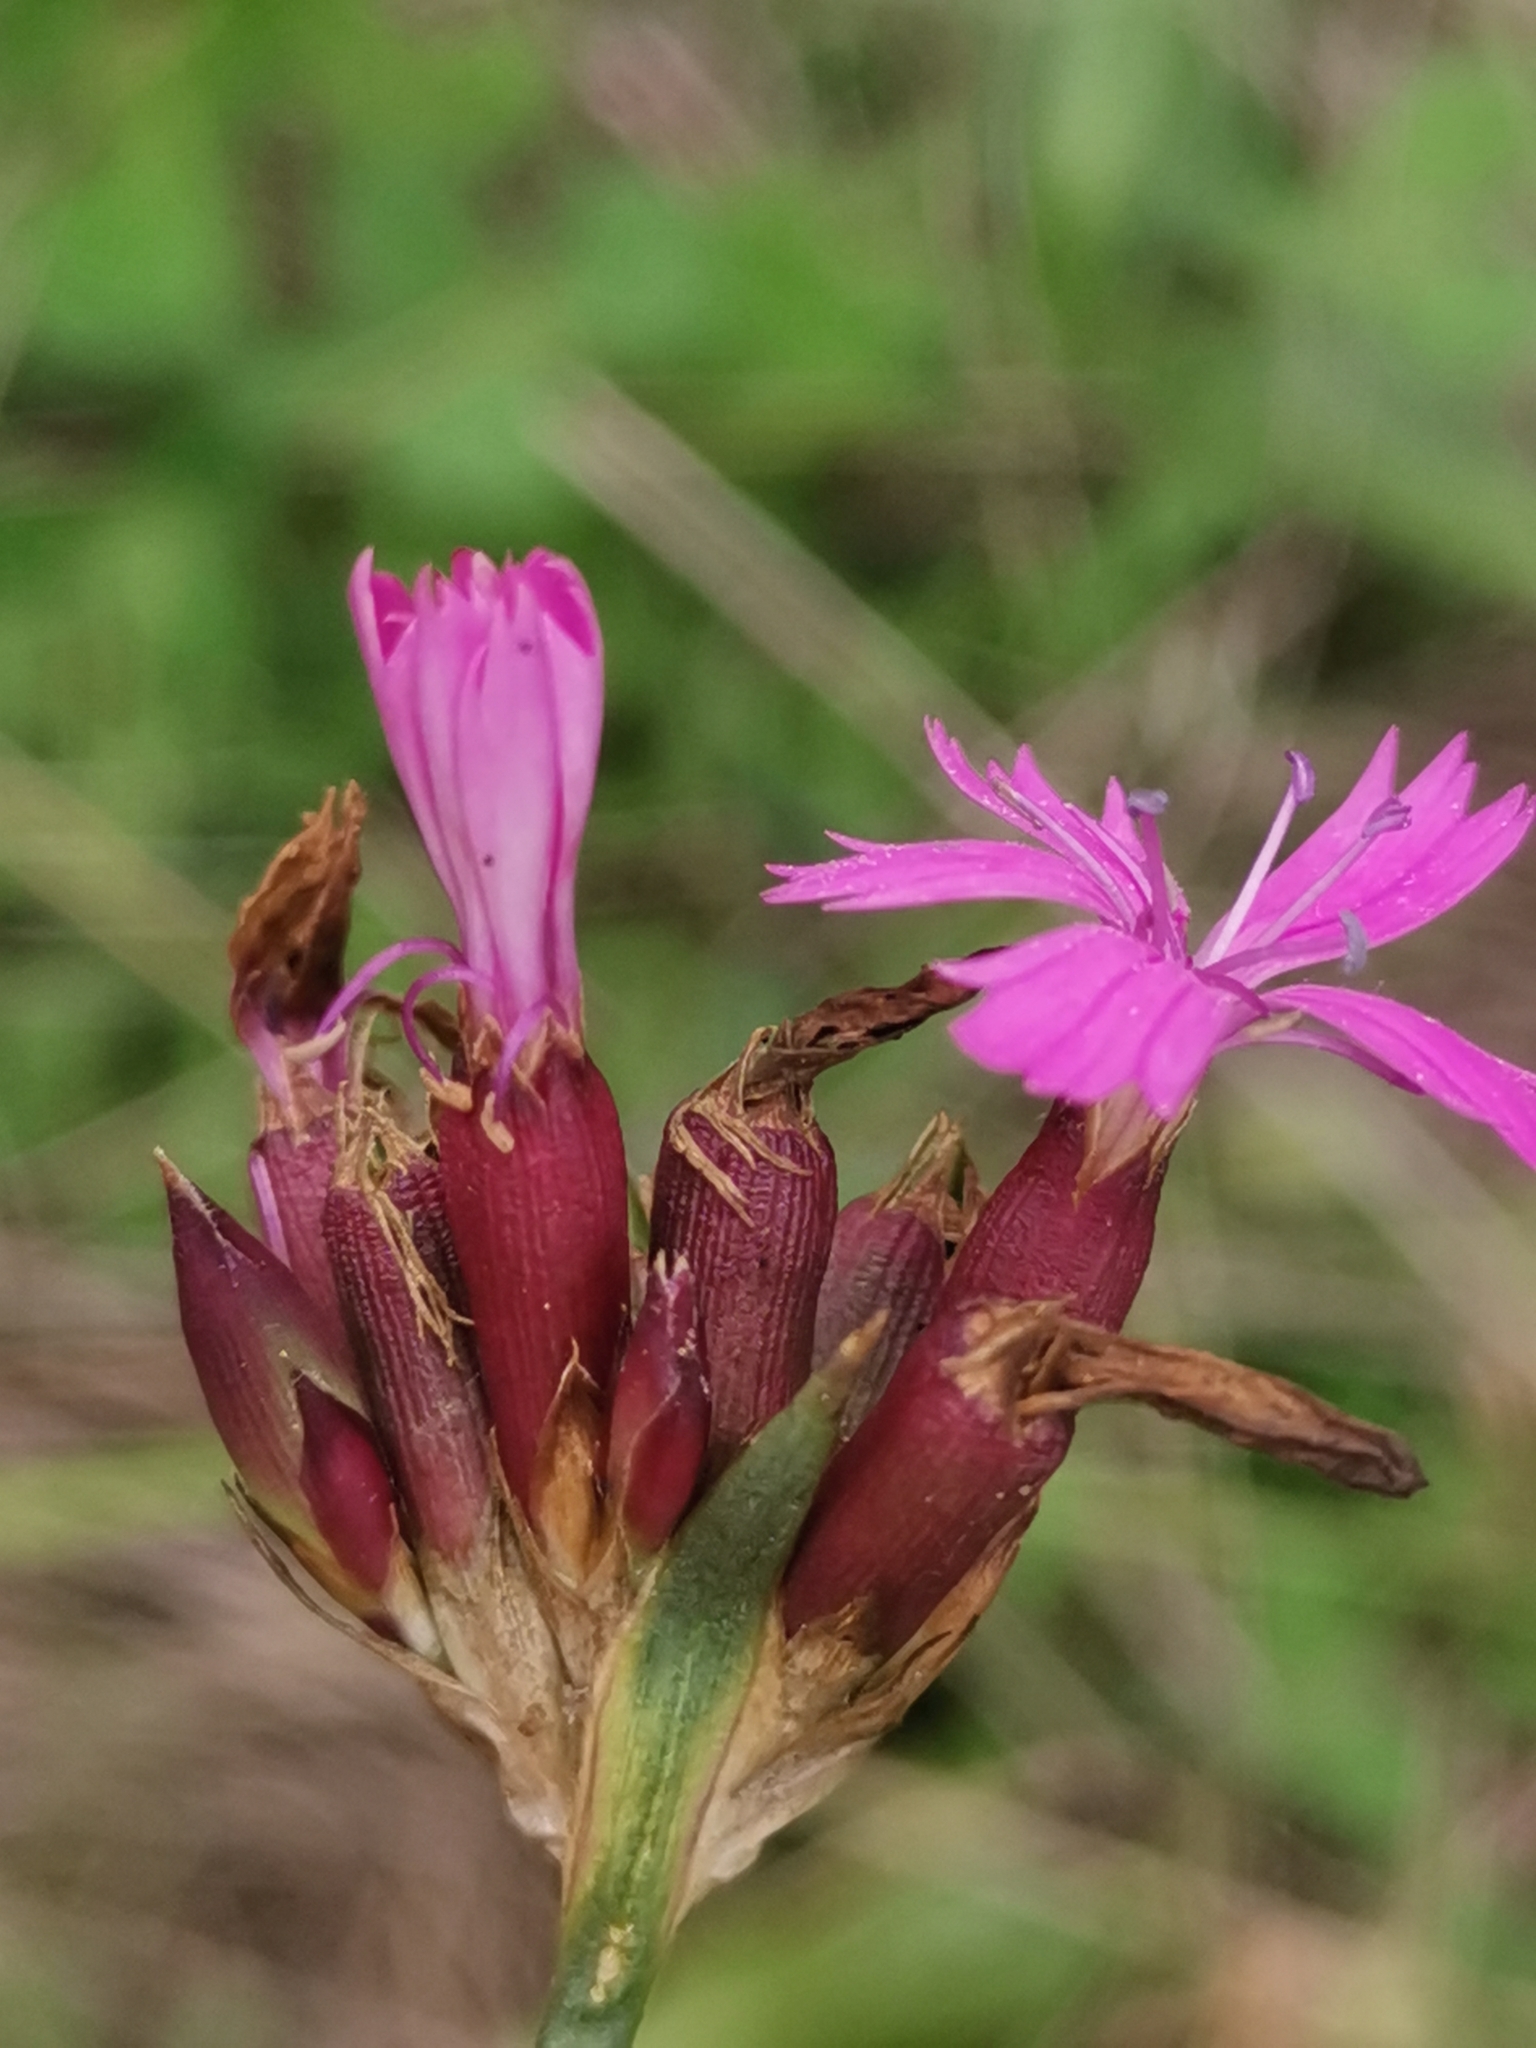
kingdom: Plantae
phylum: Tracheophyta
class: Magnoliopsida
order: Caryophyllales
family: Caryophyllaceae
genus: Dianthus
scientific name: Dianthus pontederae
